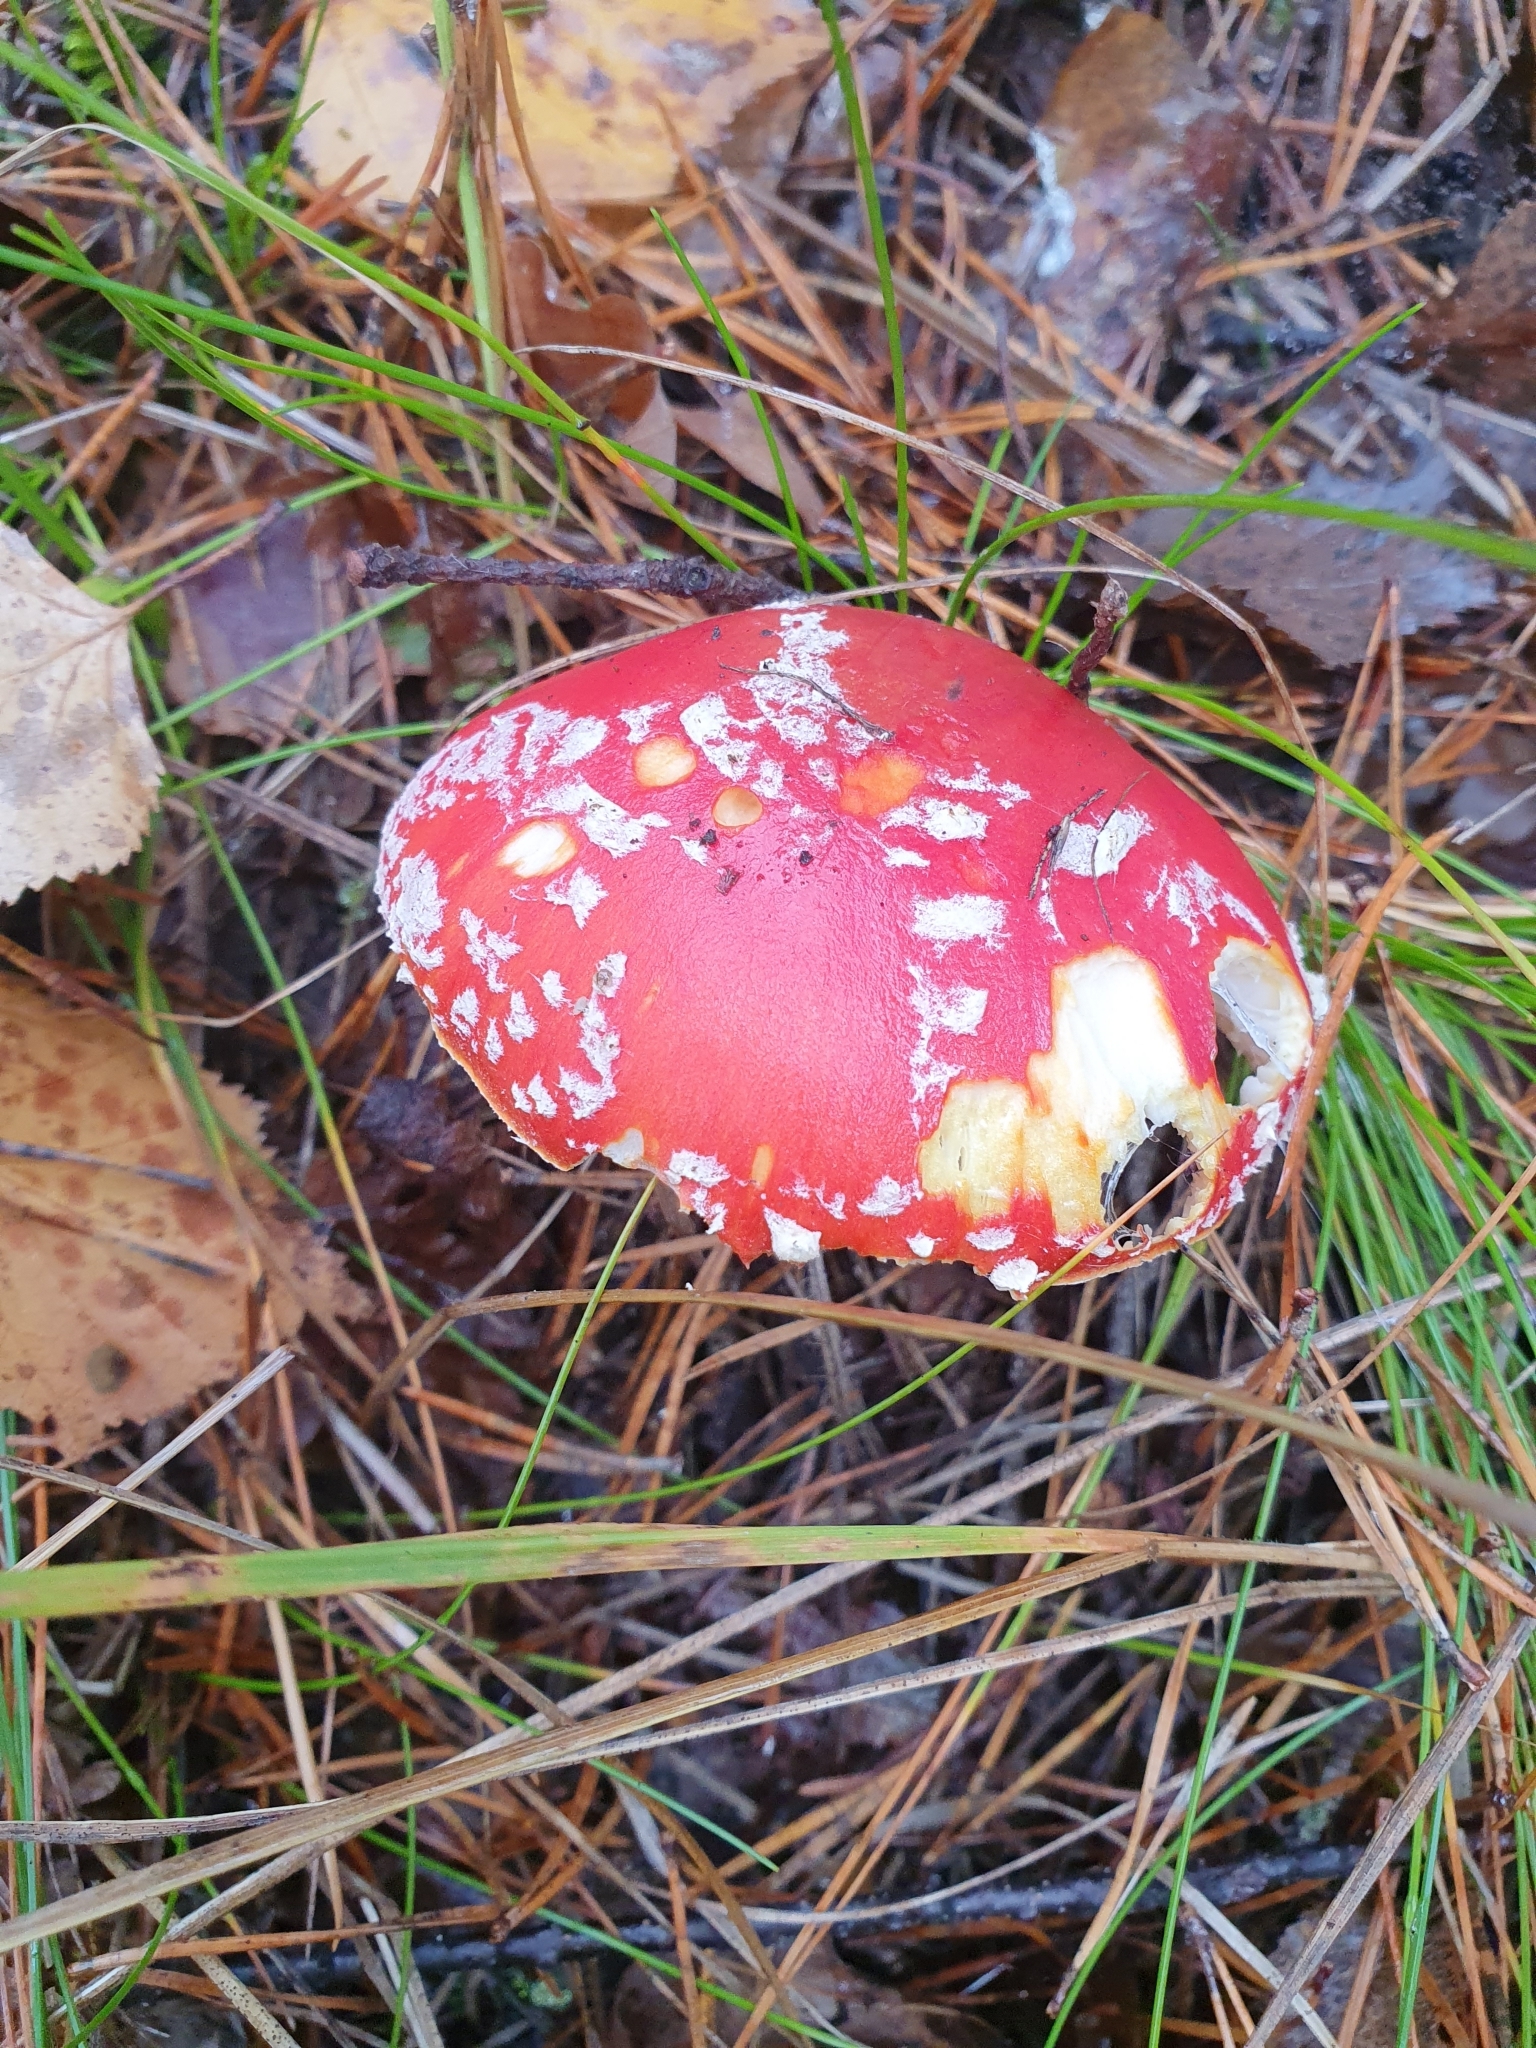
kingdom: Fungi
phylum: Basidiomycota
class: Agaricomycetes
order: Agaricales
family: Amanitaceae
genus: Amanita
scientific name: Amanita muscaria
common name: Fly agaric
